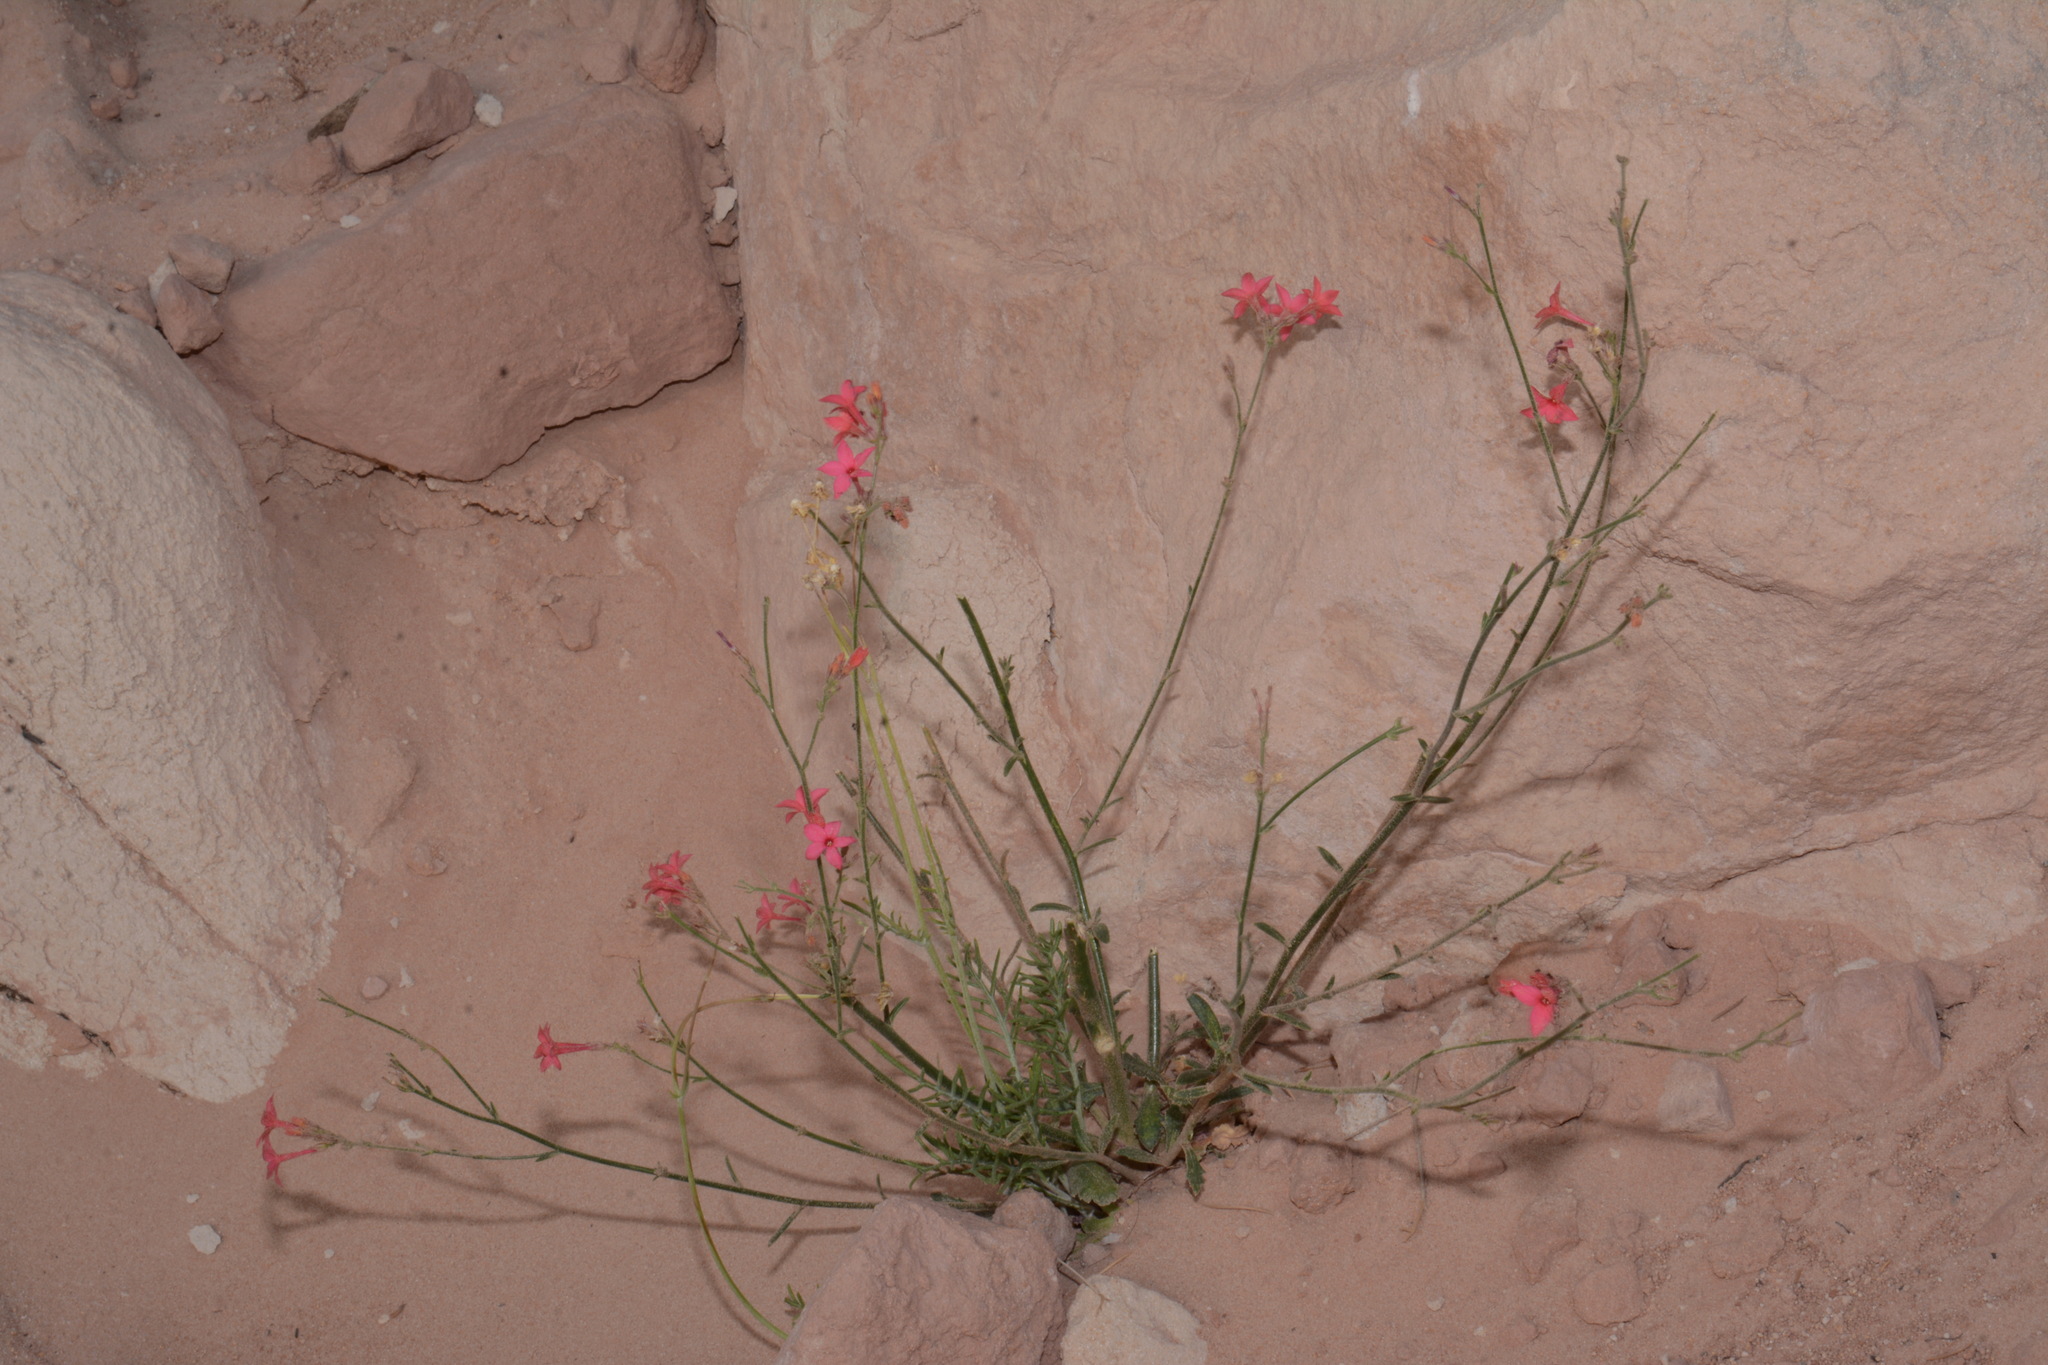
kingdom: Plantae
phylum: Tracheophyta
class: Magnoliopsida
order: Ericales
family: Polemoniaceae
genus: Aliciella
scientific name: Aliciella subnuda
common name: Coral gilia
